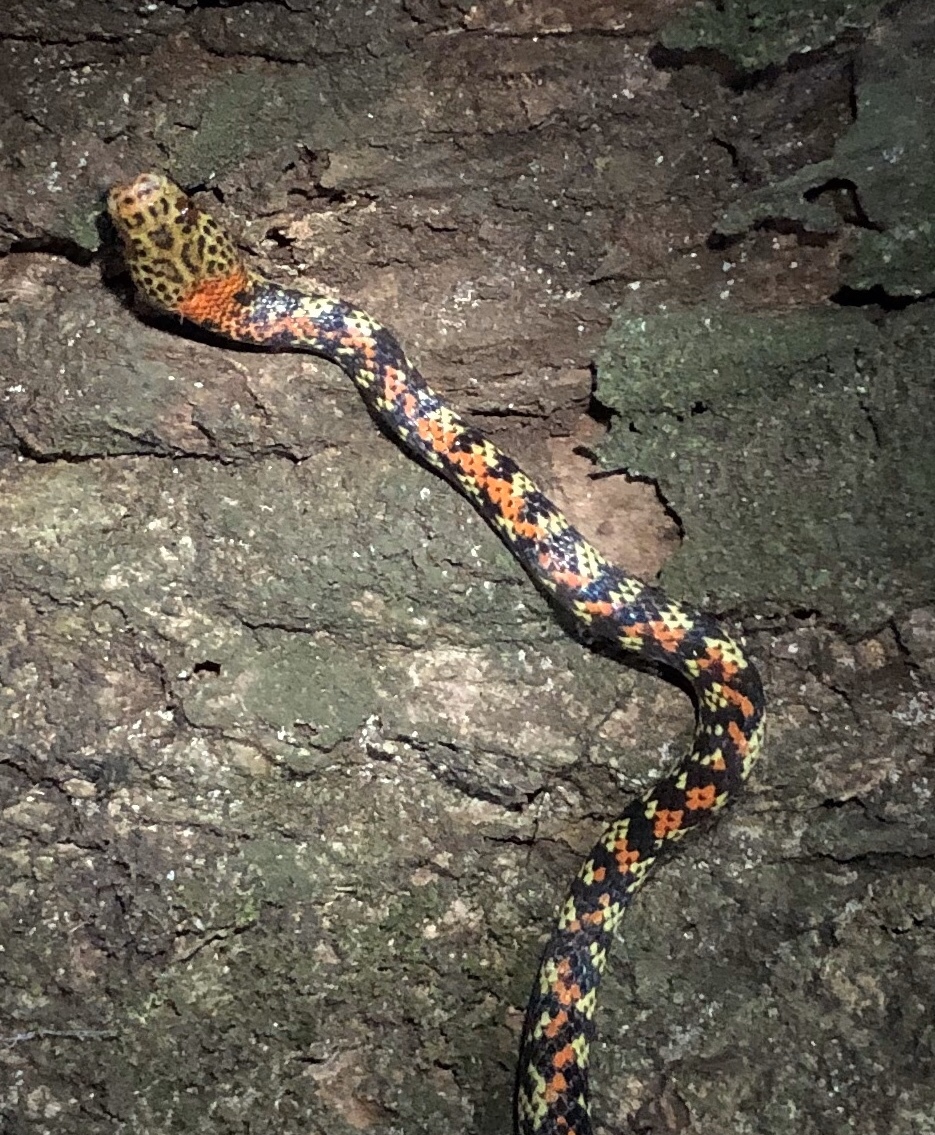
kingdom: Animalia
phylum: Chordata
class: Squamata
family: Colubridae
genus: Siphlophis
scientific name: Siphlophis cervinus
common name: Panama spotted night snake
